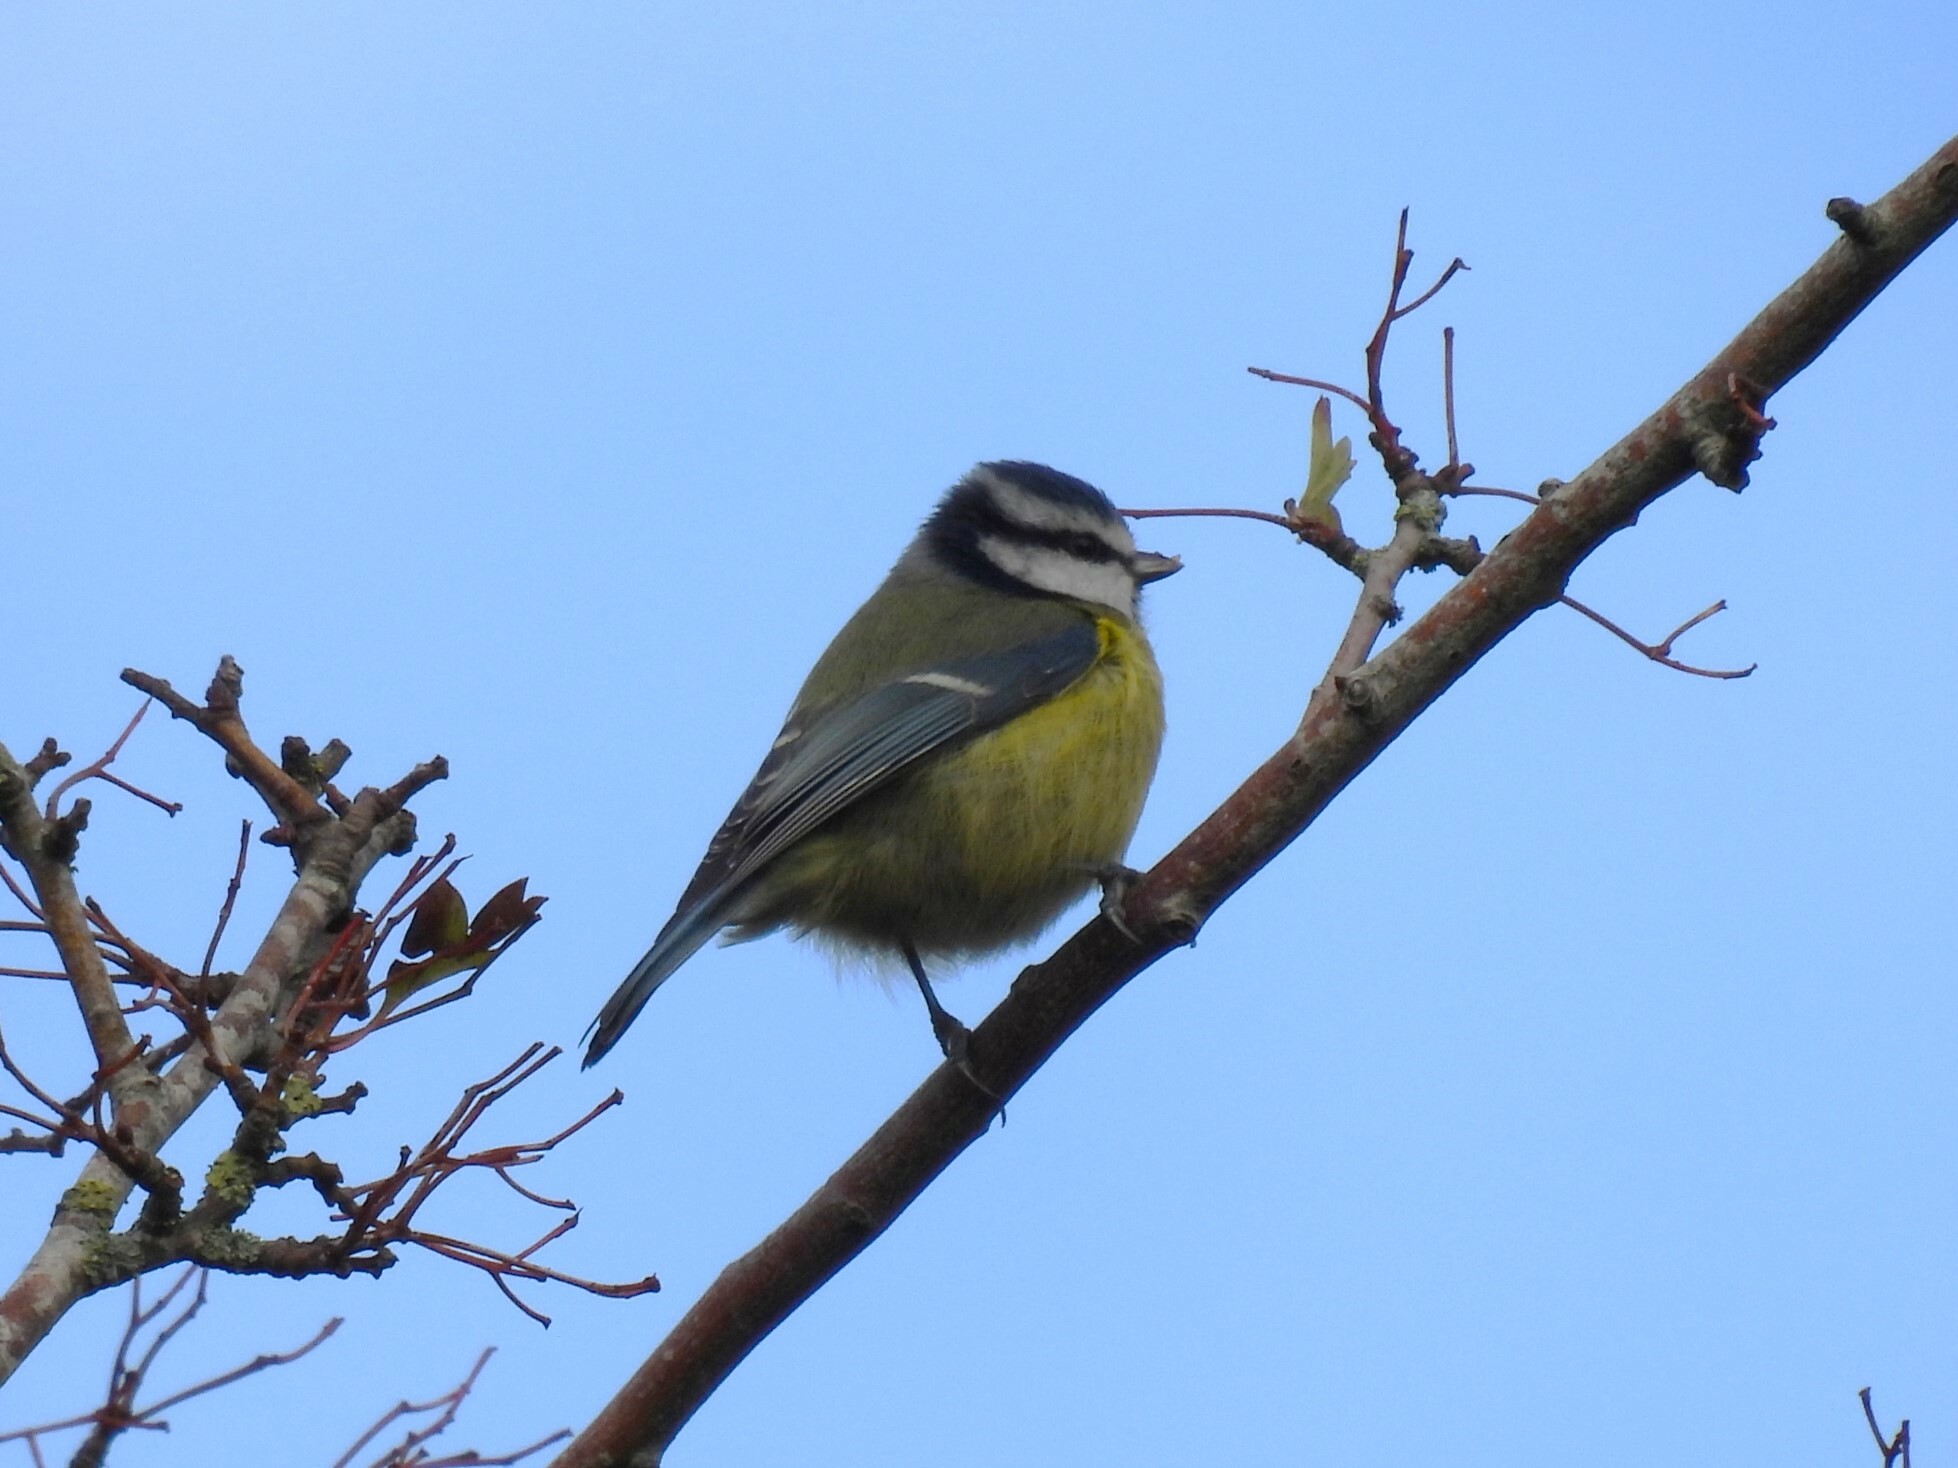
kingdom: Animalia
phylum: Chordata
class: Aves
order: Passeriformes
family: Paridae
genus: Cyanistes
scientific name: Cyanistes caeruleus
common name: Eurasian blue tit
